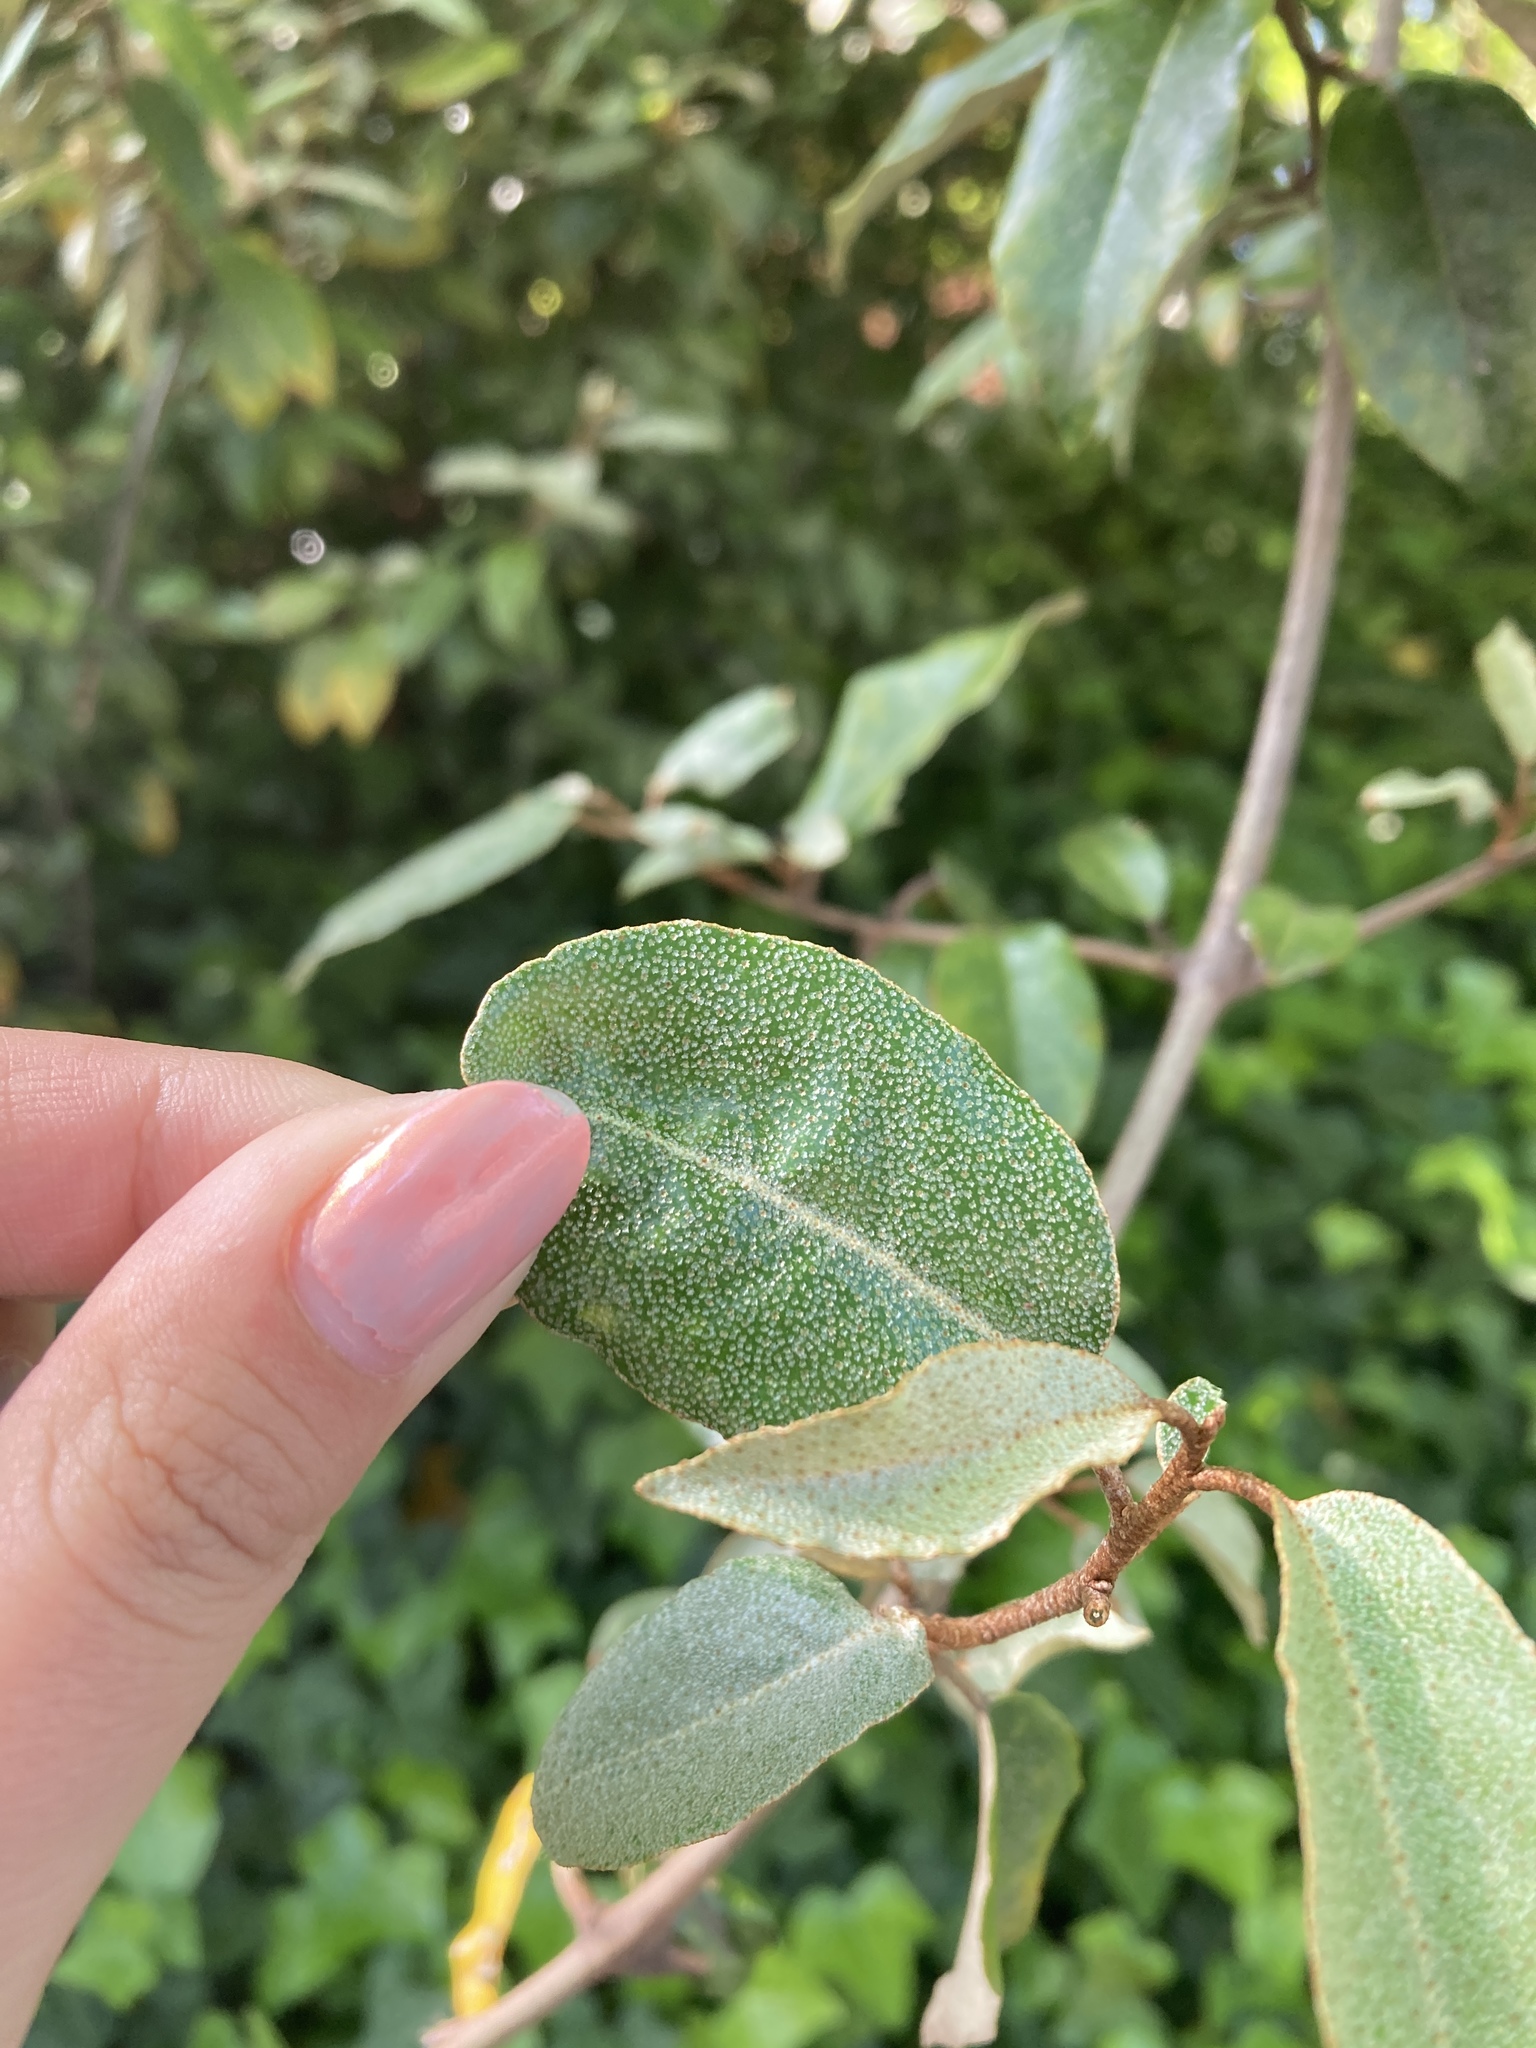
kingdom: Plantae
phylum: Tracheophyta
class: Magnoliopsida
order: Rosales
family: Elaeagnaceae
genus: Elaeagnus
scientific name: Elaeagnus pungens
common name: Spiny oleaster
